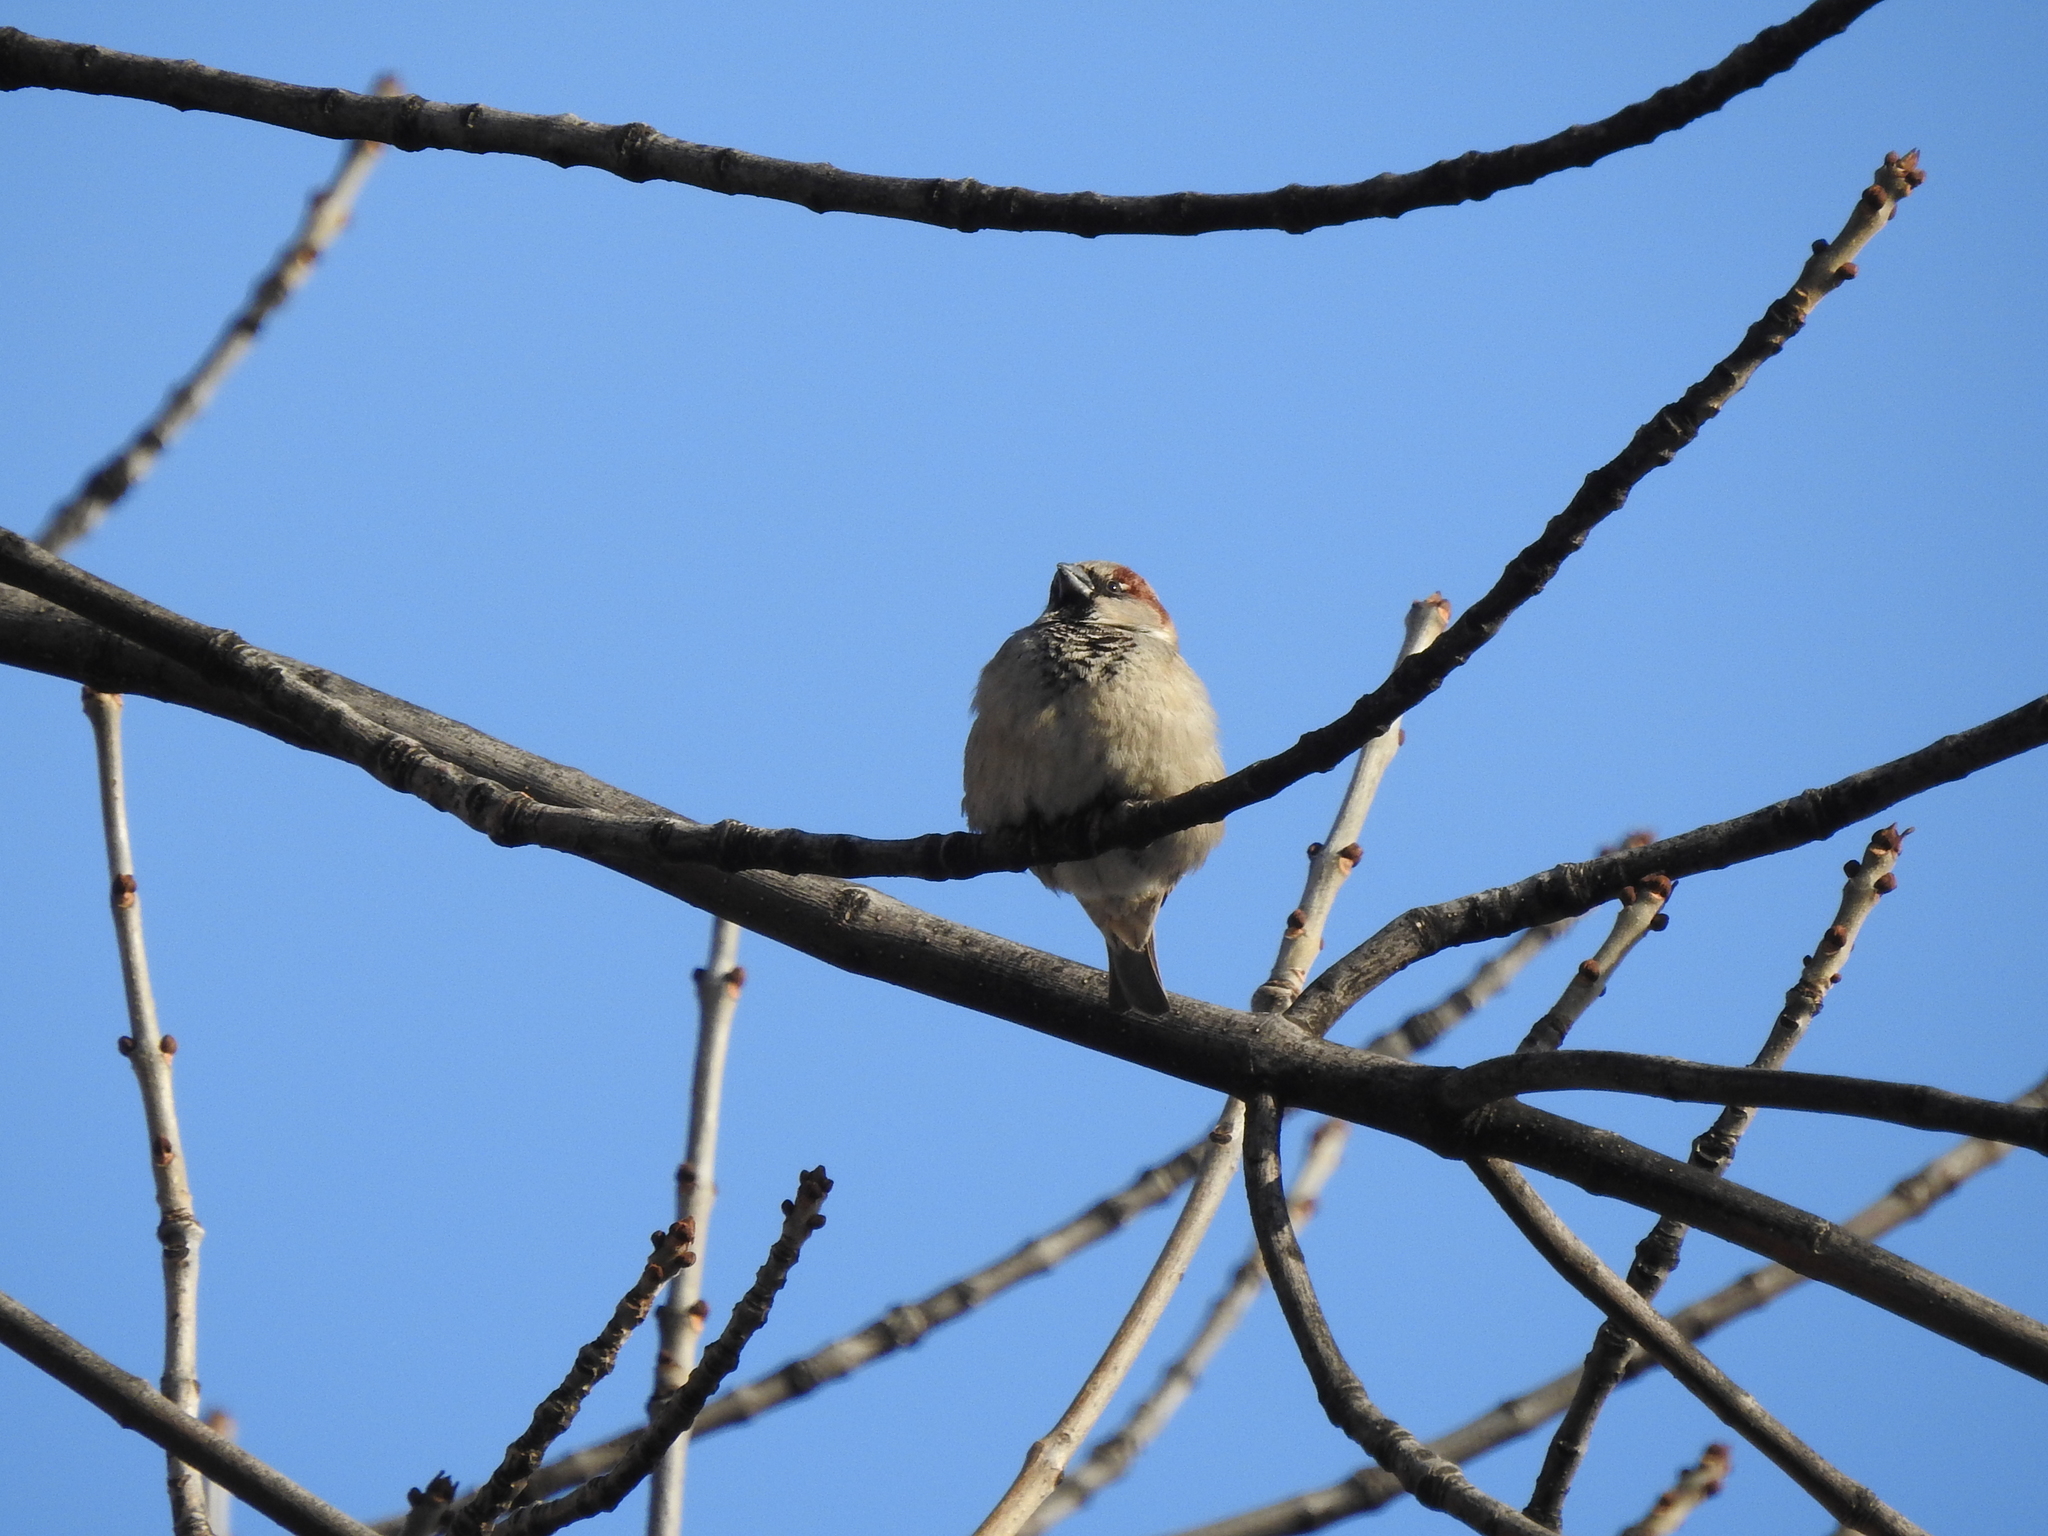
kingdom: Animalia
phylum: Chordata
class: Aves
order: Passeriformes
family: Passeridae
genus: Passer
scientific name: Passer domesticus
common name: House sparrow
